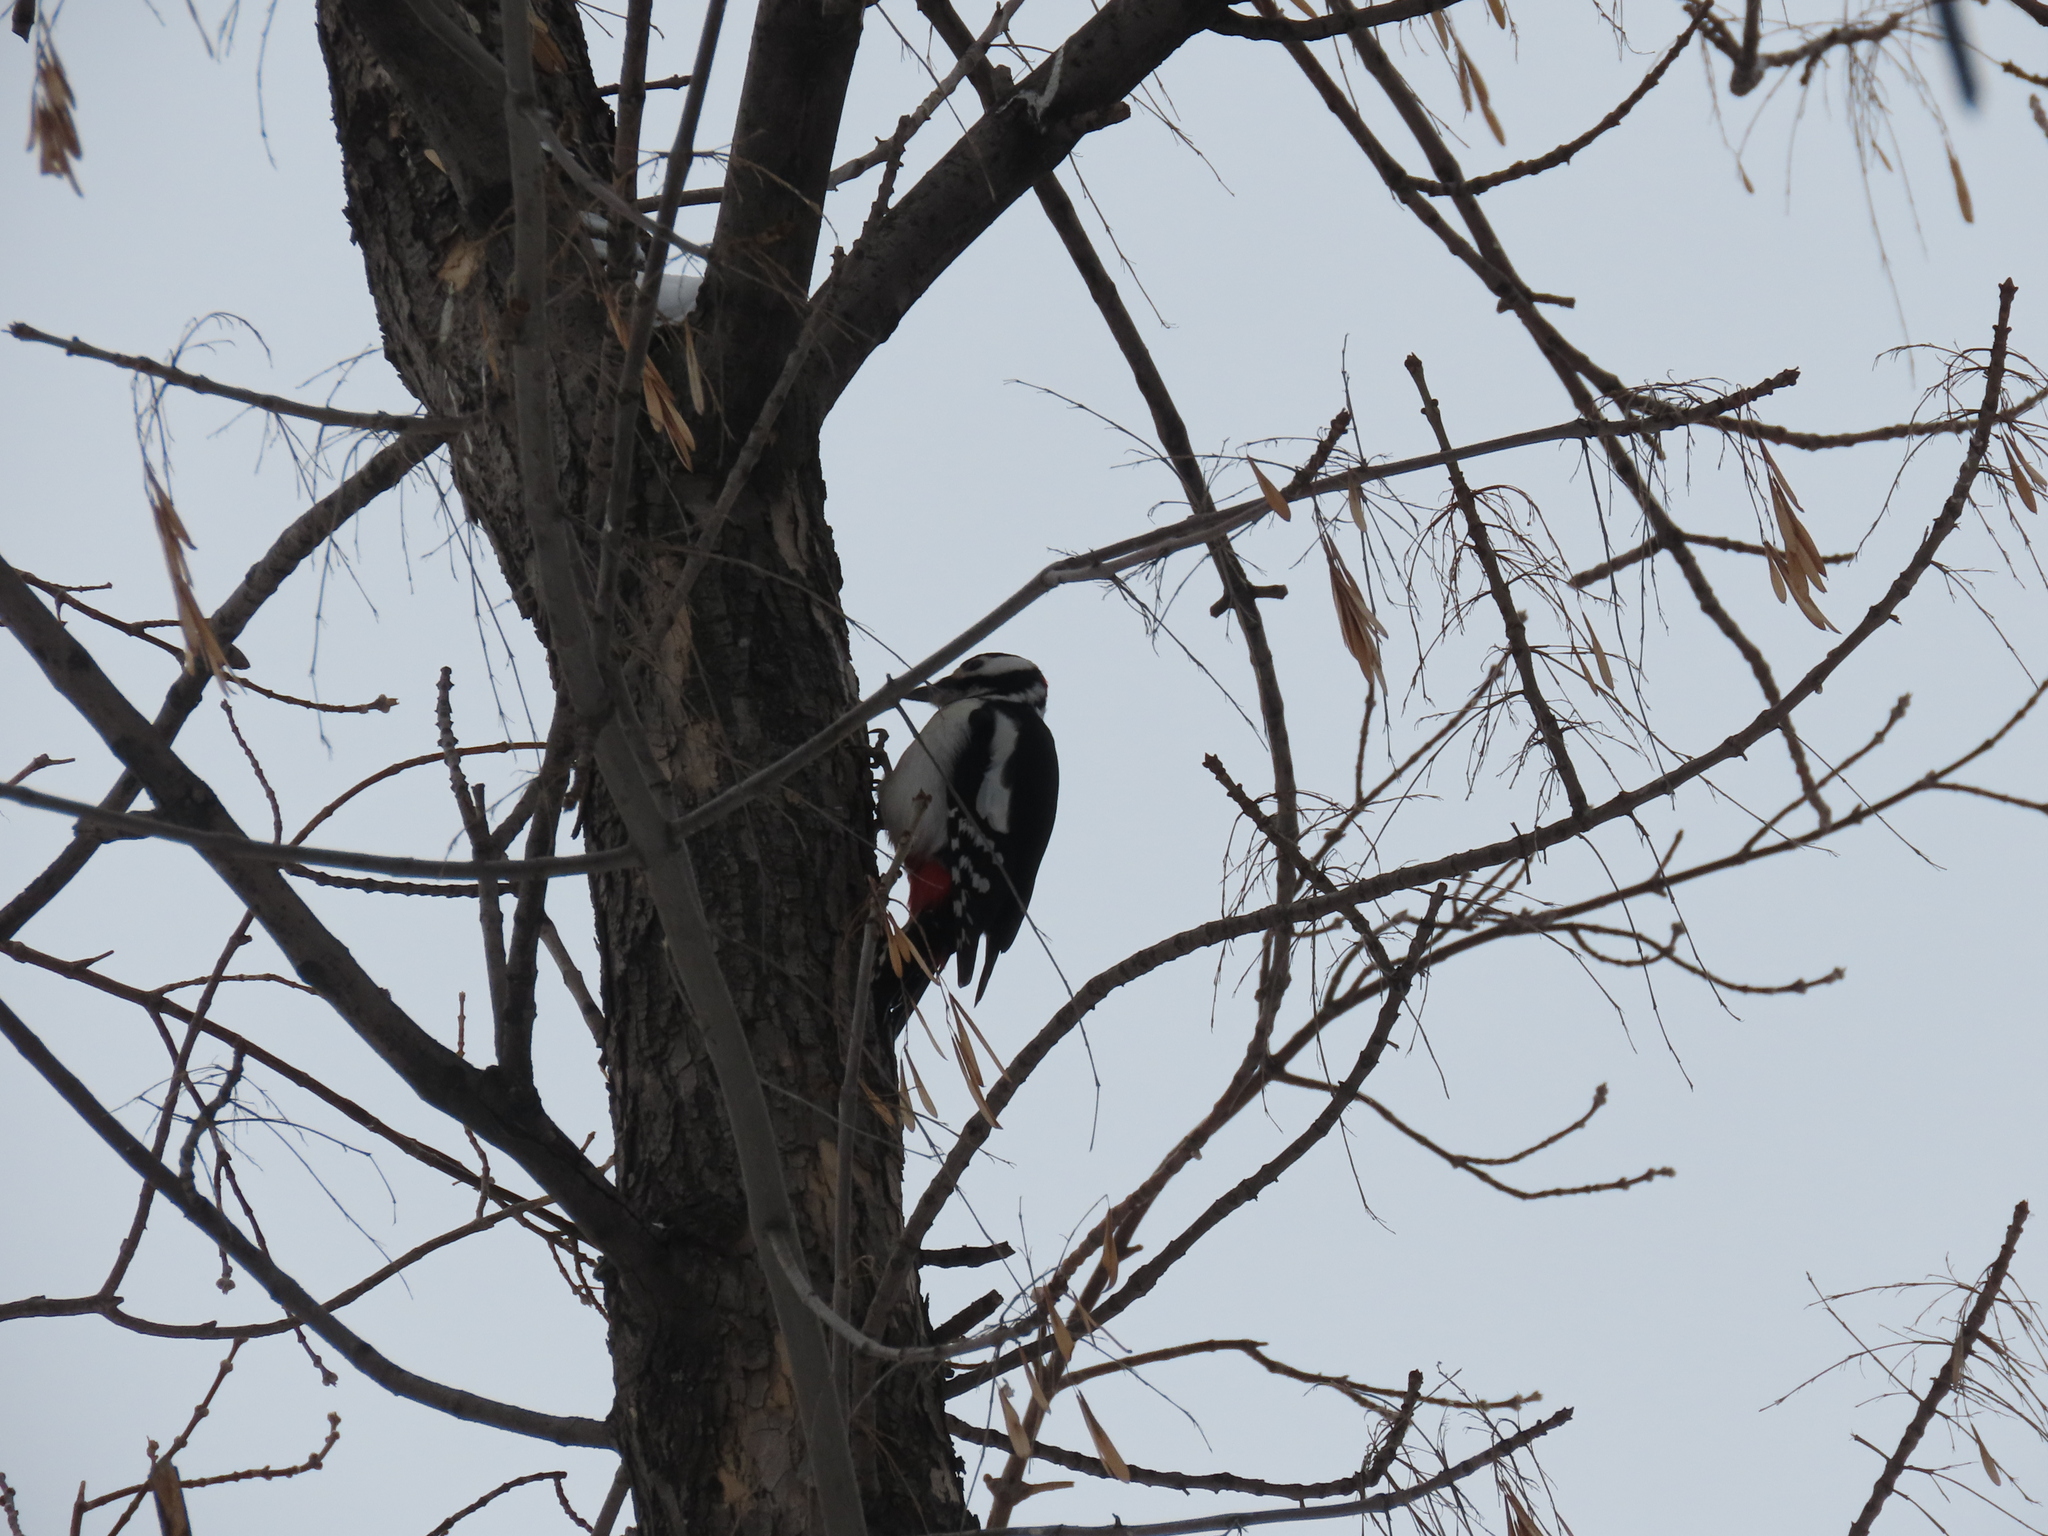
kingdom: Animalia
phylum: Chordata
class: Aves
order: Piciformes
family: Picidae
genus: Dendrocopos
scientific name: Dendrocopos major
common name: Great spotted woodpecker
